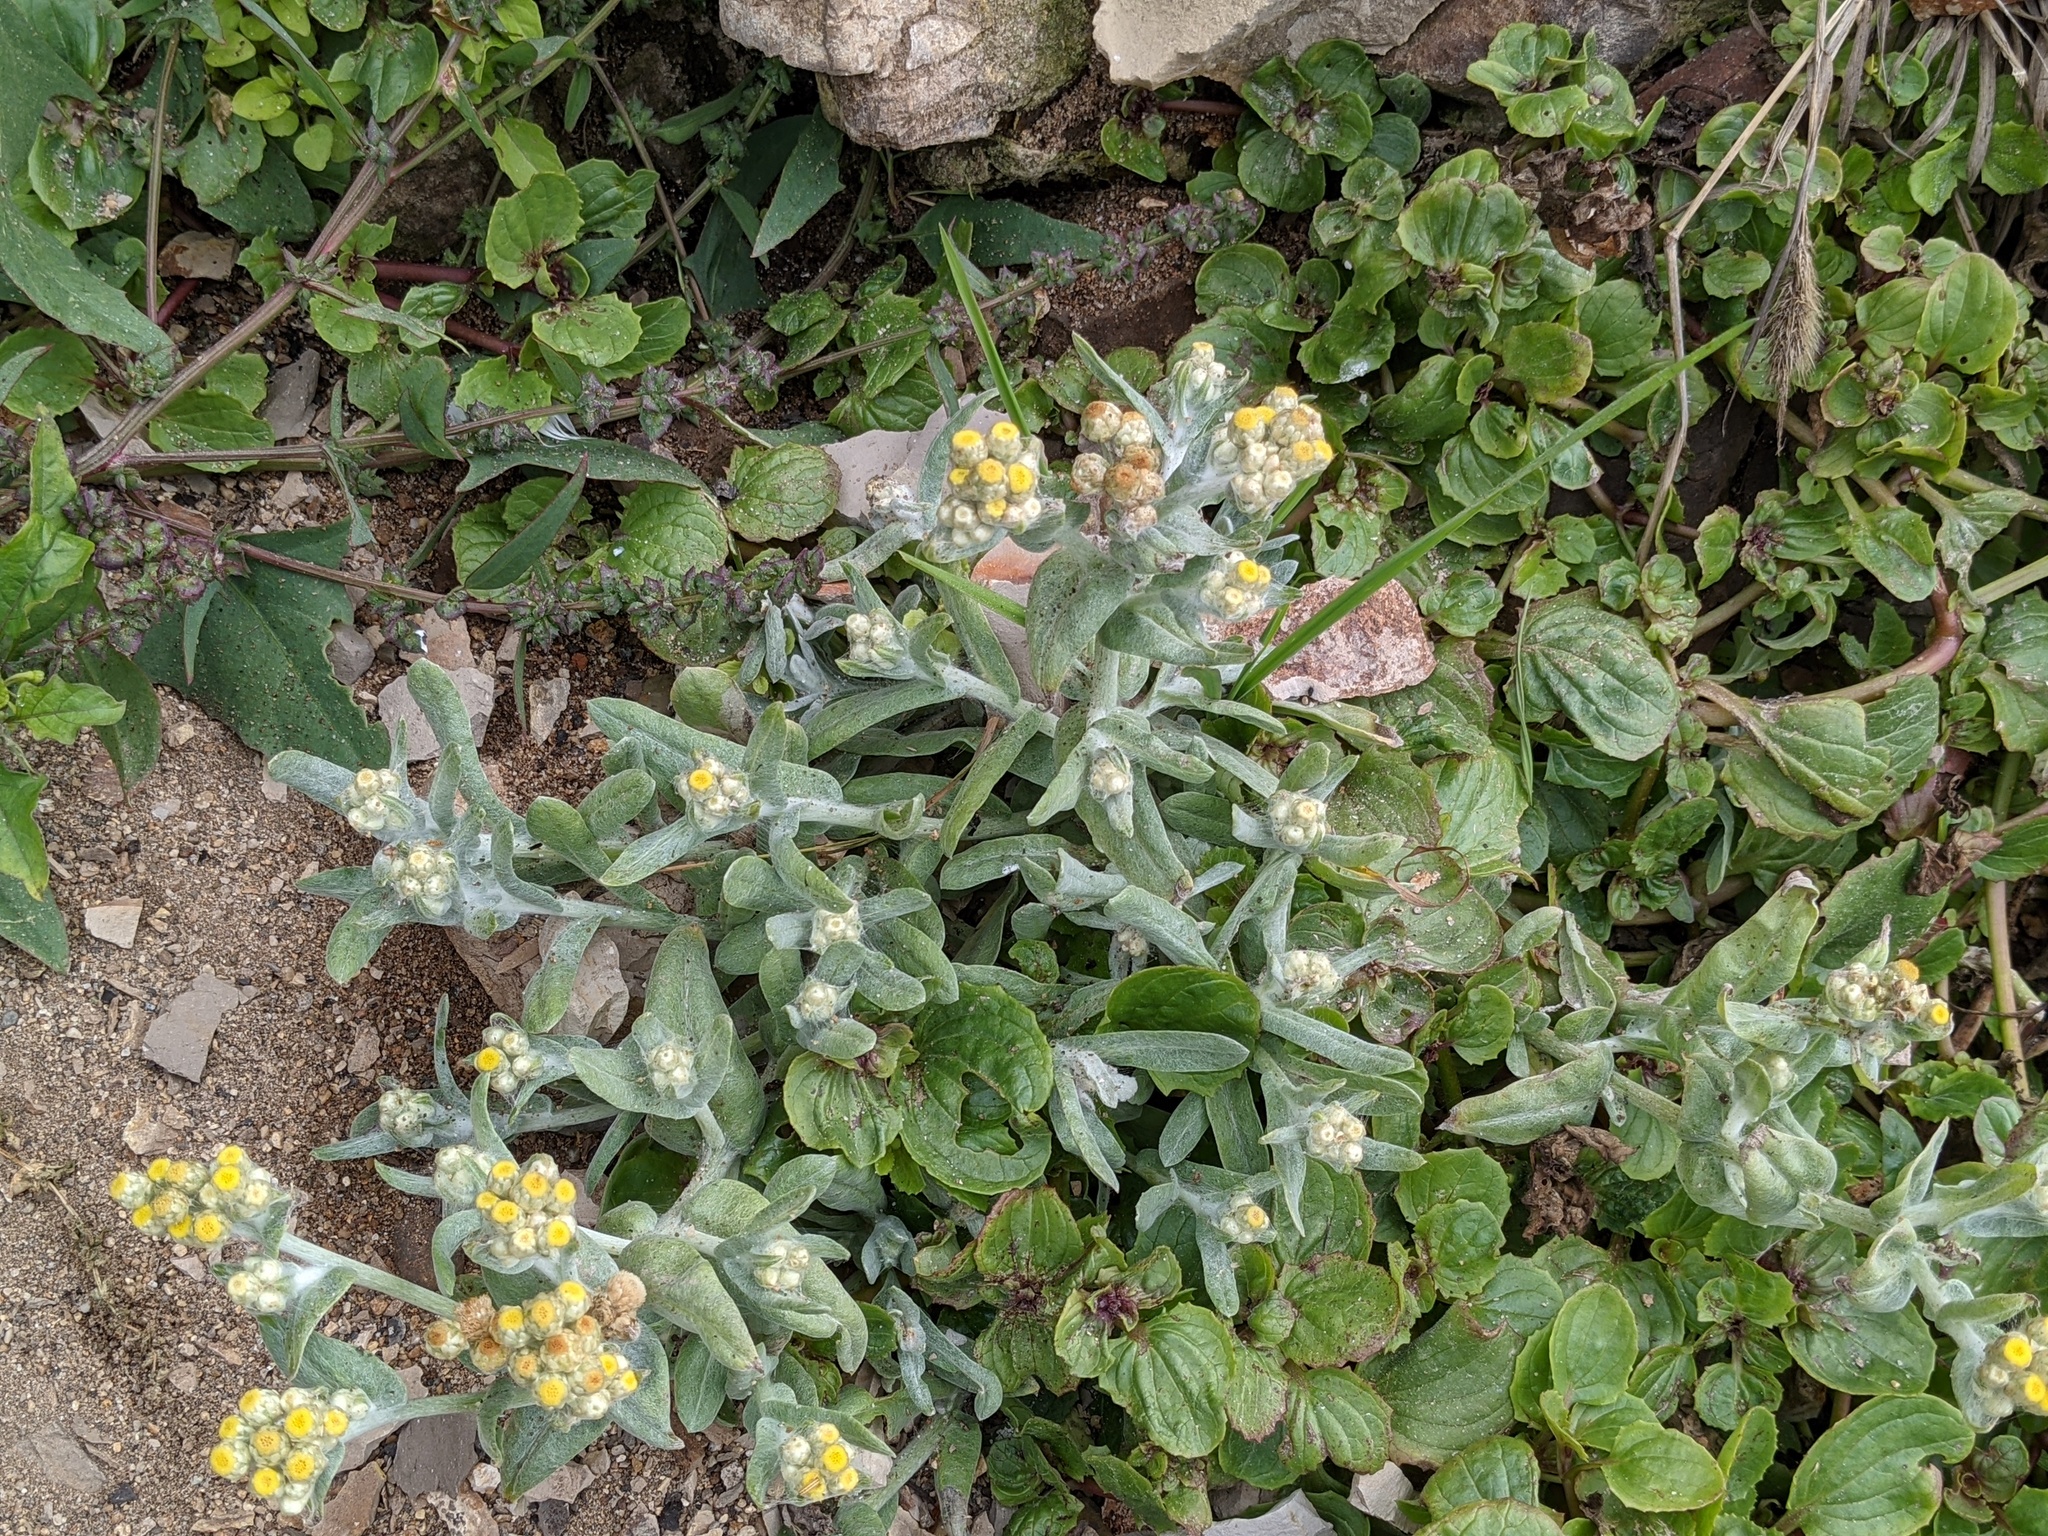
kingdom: Plantae
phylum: Tracheophyta
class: Magnoliopsida
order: Asterales
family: Asteraceae
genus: Pseudognaphalium
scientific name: Pseudognaphalium stramineum
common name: Cotton-batting-plant
